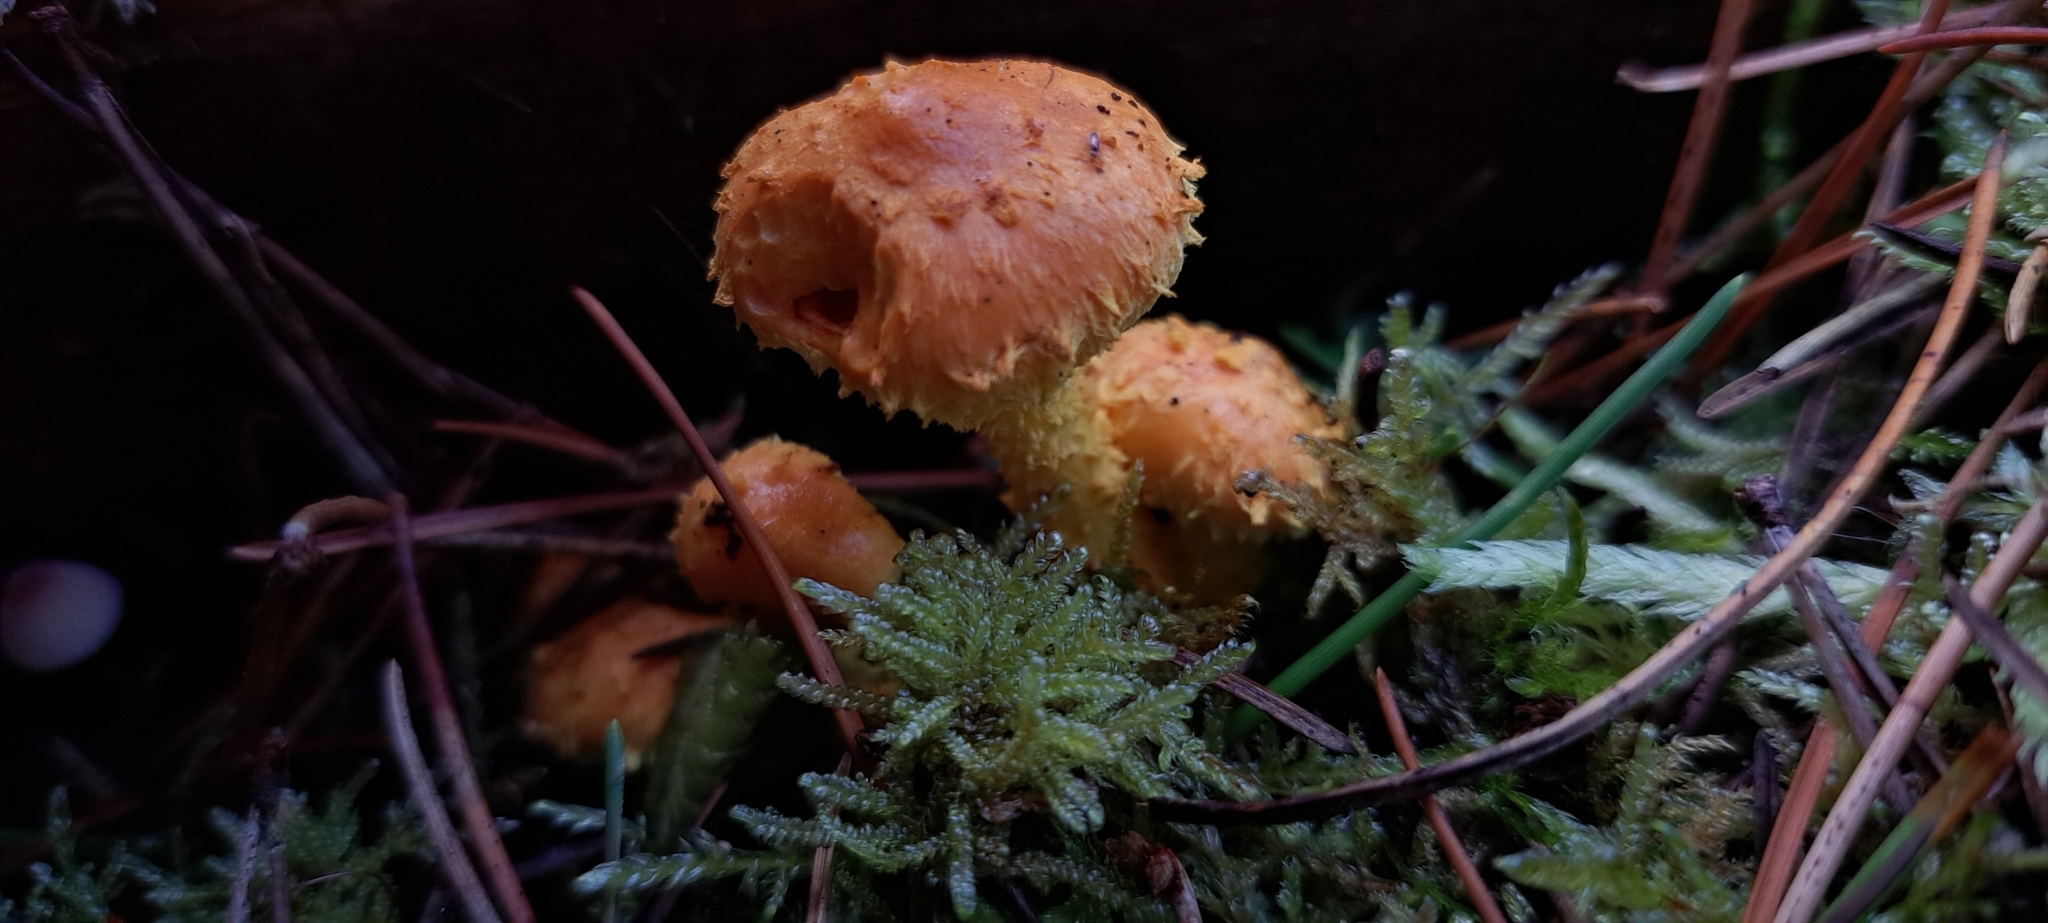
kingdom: Fungi
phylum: Basidiomycota
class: Agaricomycetes
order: Agaricales
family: Strophariaceae
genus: Pholiota
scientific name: Pholiota flammans
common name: Flaming scalycap
